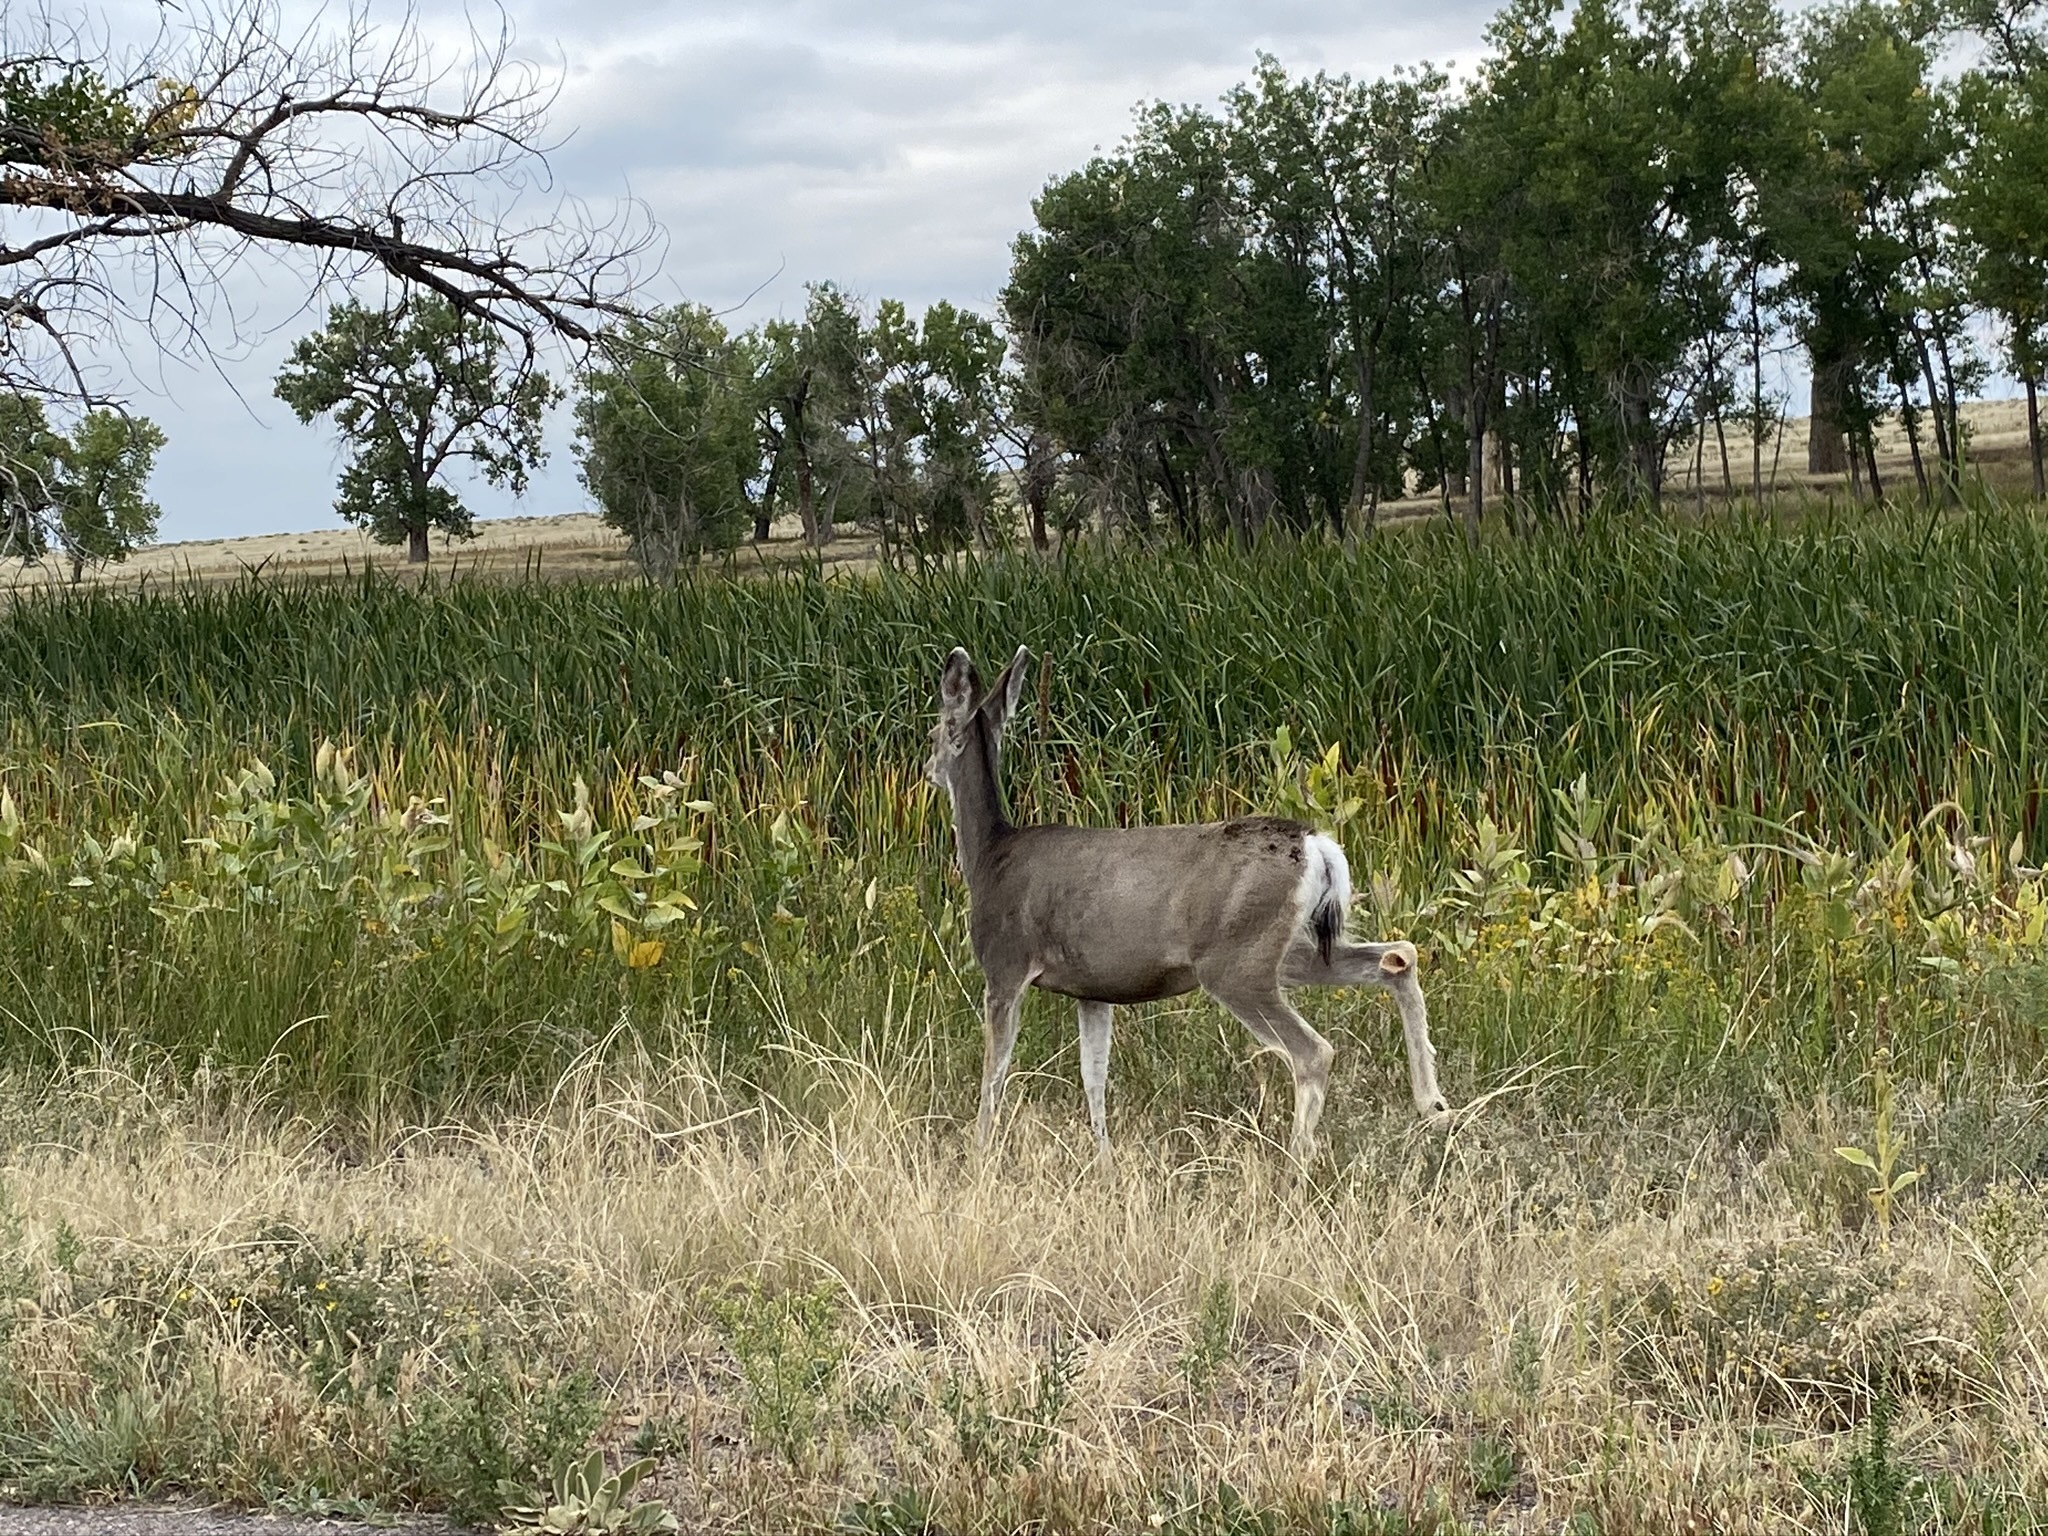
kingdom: Animalia
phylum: Chordata
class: Mammalia
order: Artiodactyla
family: Cervidae
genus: Odocoileus
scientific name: Odocoileus hemionus
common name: Mule deer
